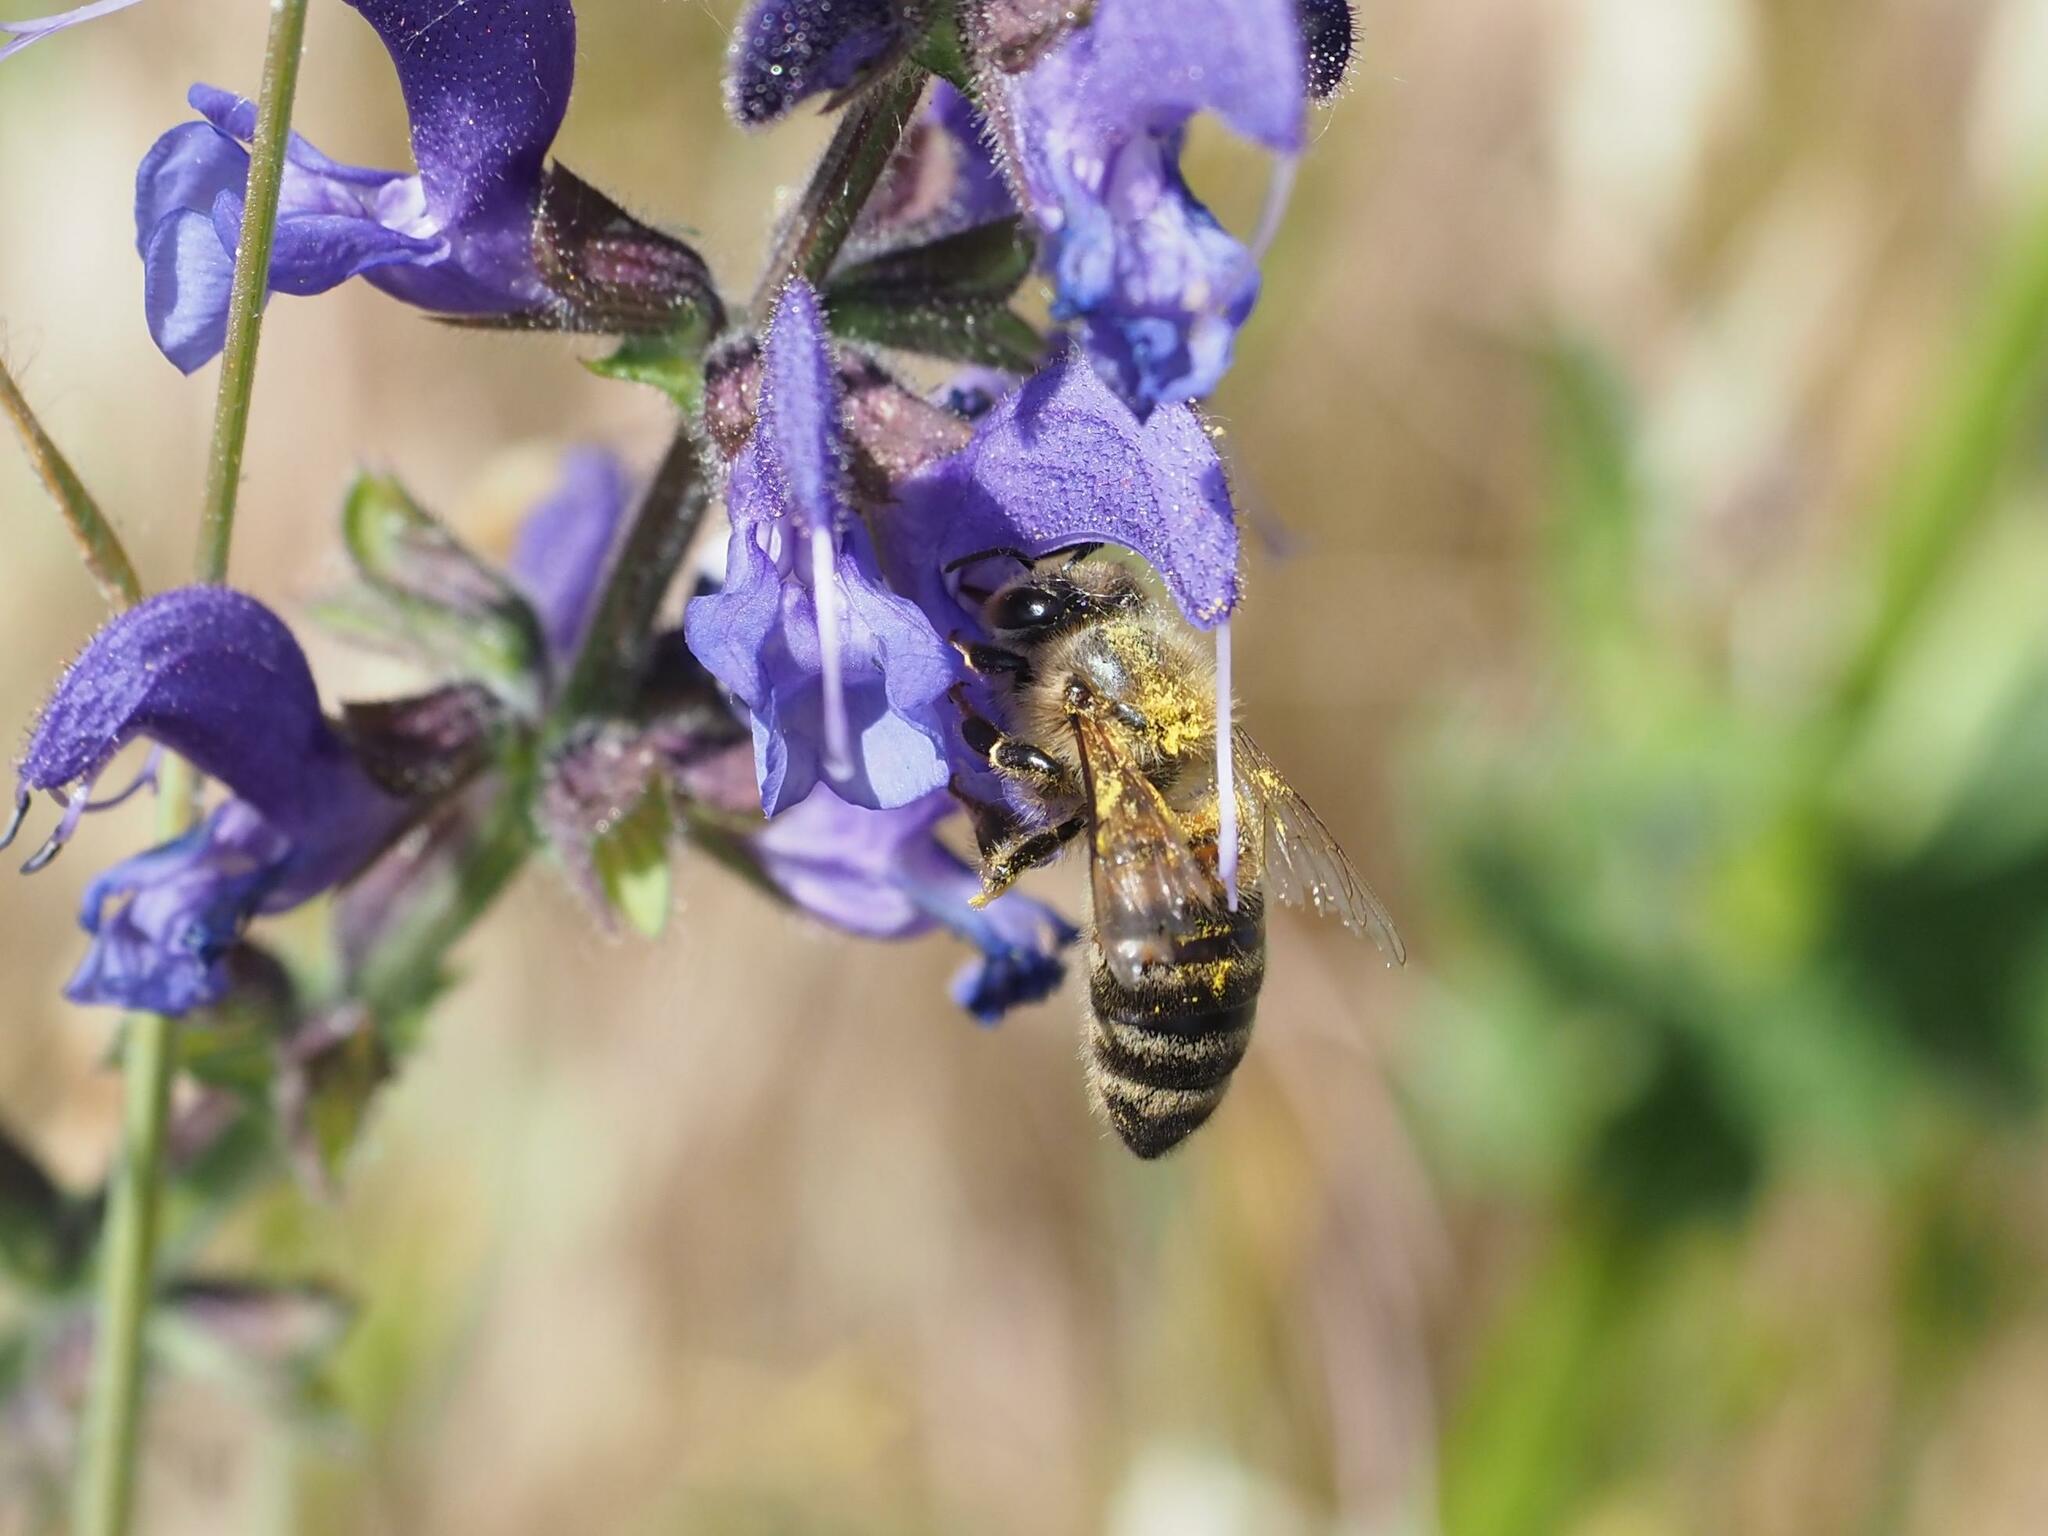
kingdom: Animalia
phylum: Arthropoda
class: Insecta
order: Hymenoptera
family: Apidae
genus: Apis
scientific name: Apis mellifera
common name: Honey bee
